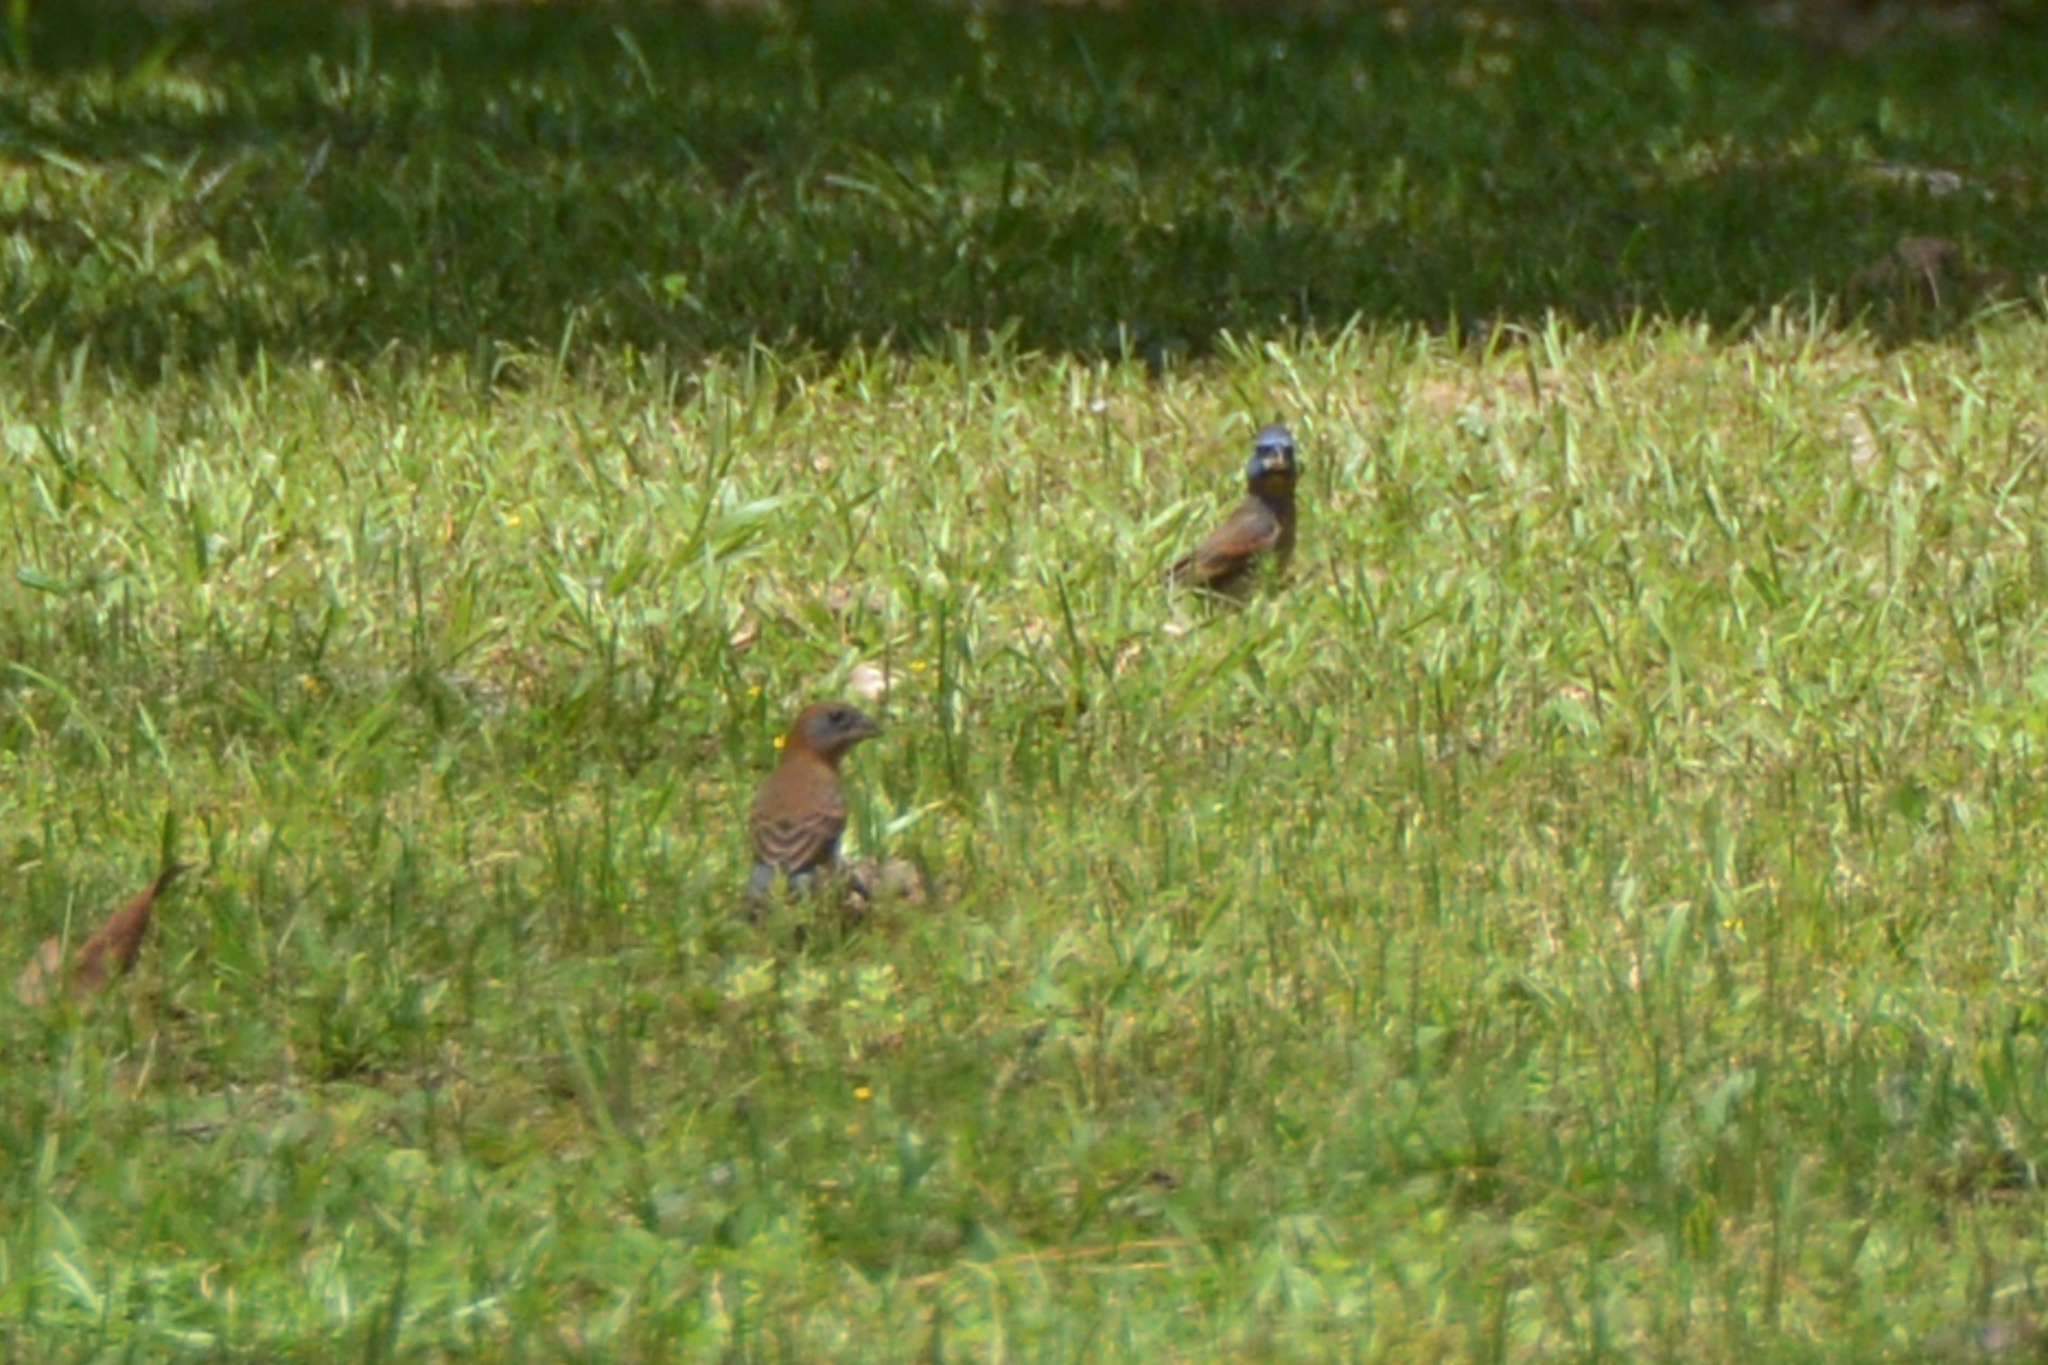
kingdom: Animalia
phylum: Chordata
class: Aves
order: Passeriformes
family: Cardinalidae
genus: Passerina
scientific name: Passerina caerulea
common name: Blue grosbeak
